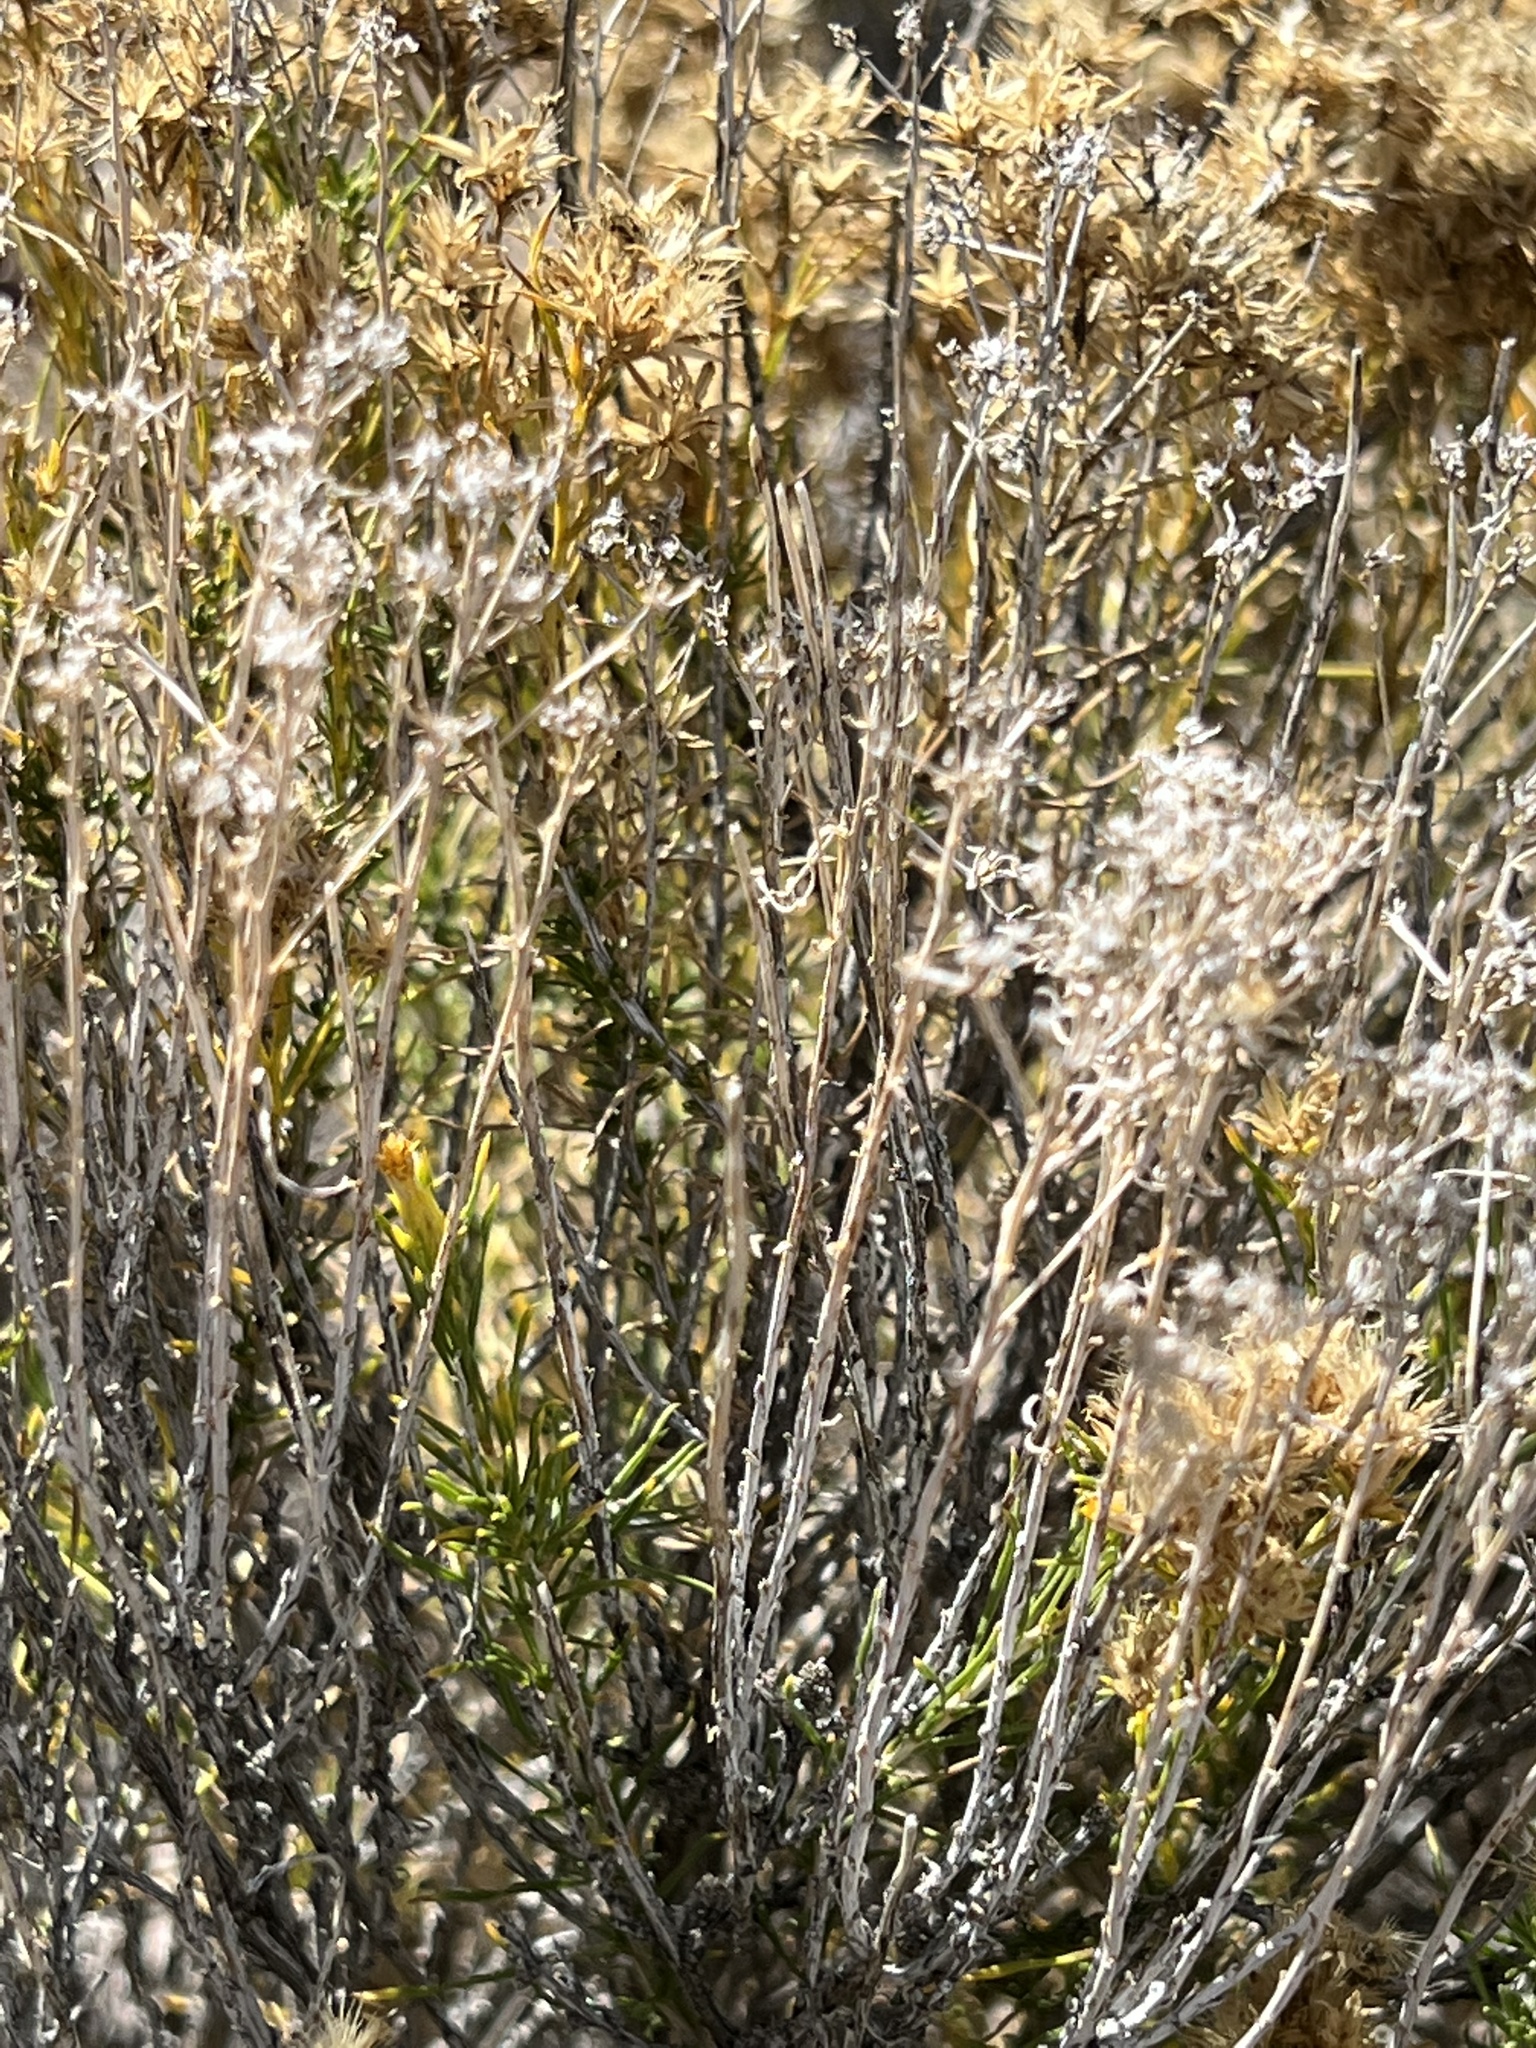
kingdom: Plantae
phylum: Tracheophyta
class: Magnoliopsida
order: Asterales
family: Asteraceae
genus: Chrysothamnus
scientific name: Chrysothamnus viscidiflorus
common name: Yellow rabbitbrush
